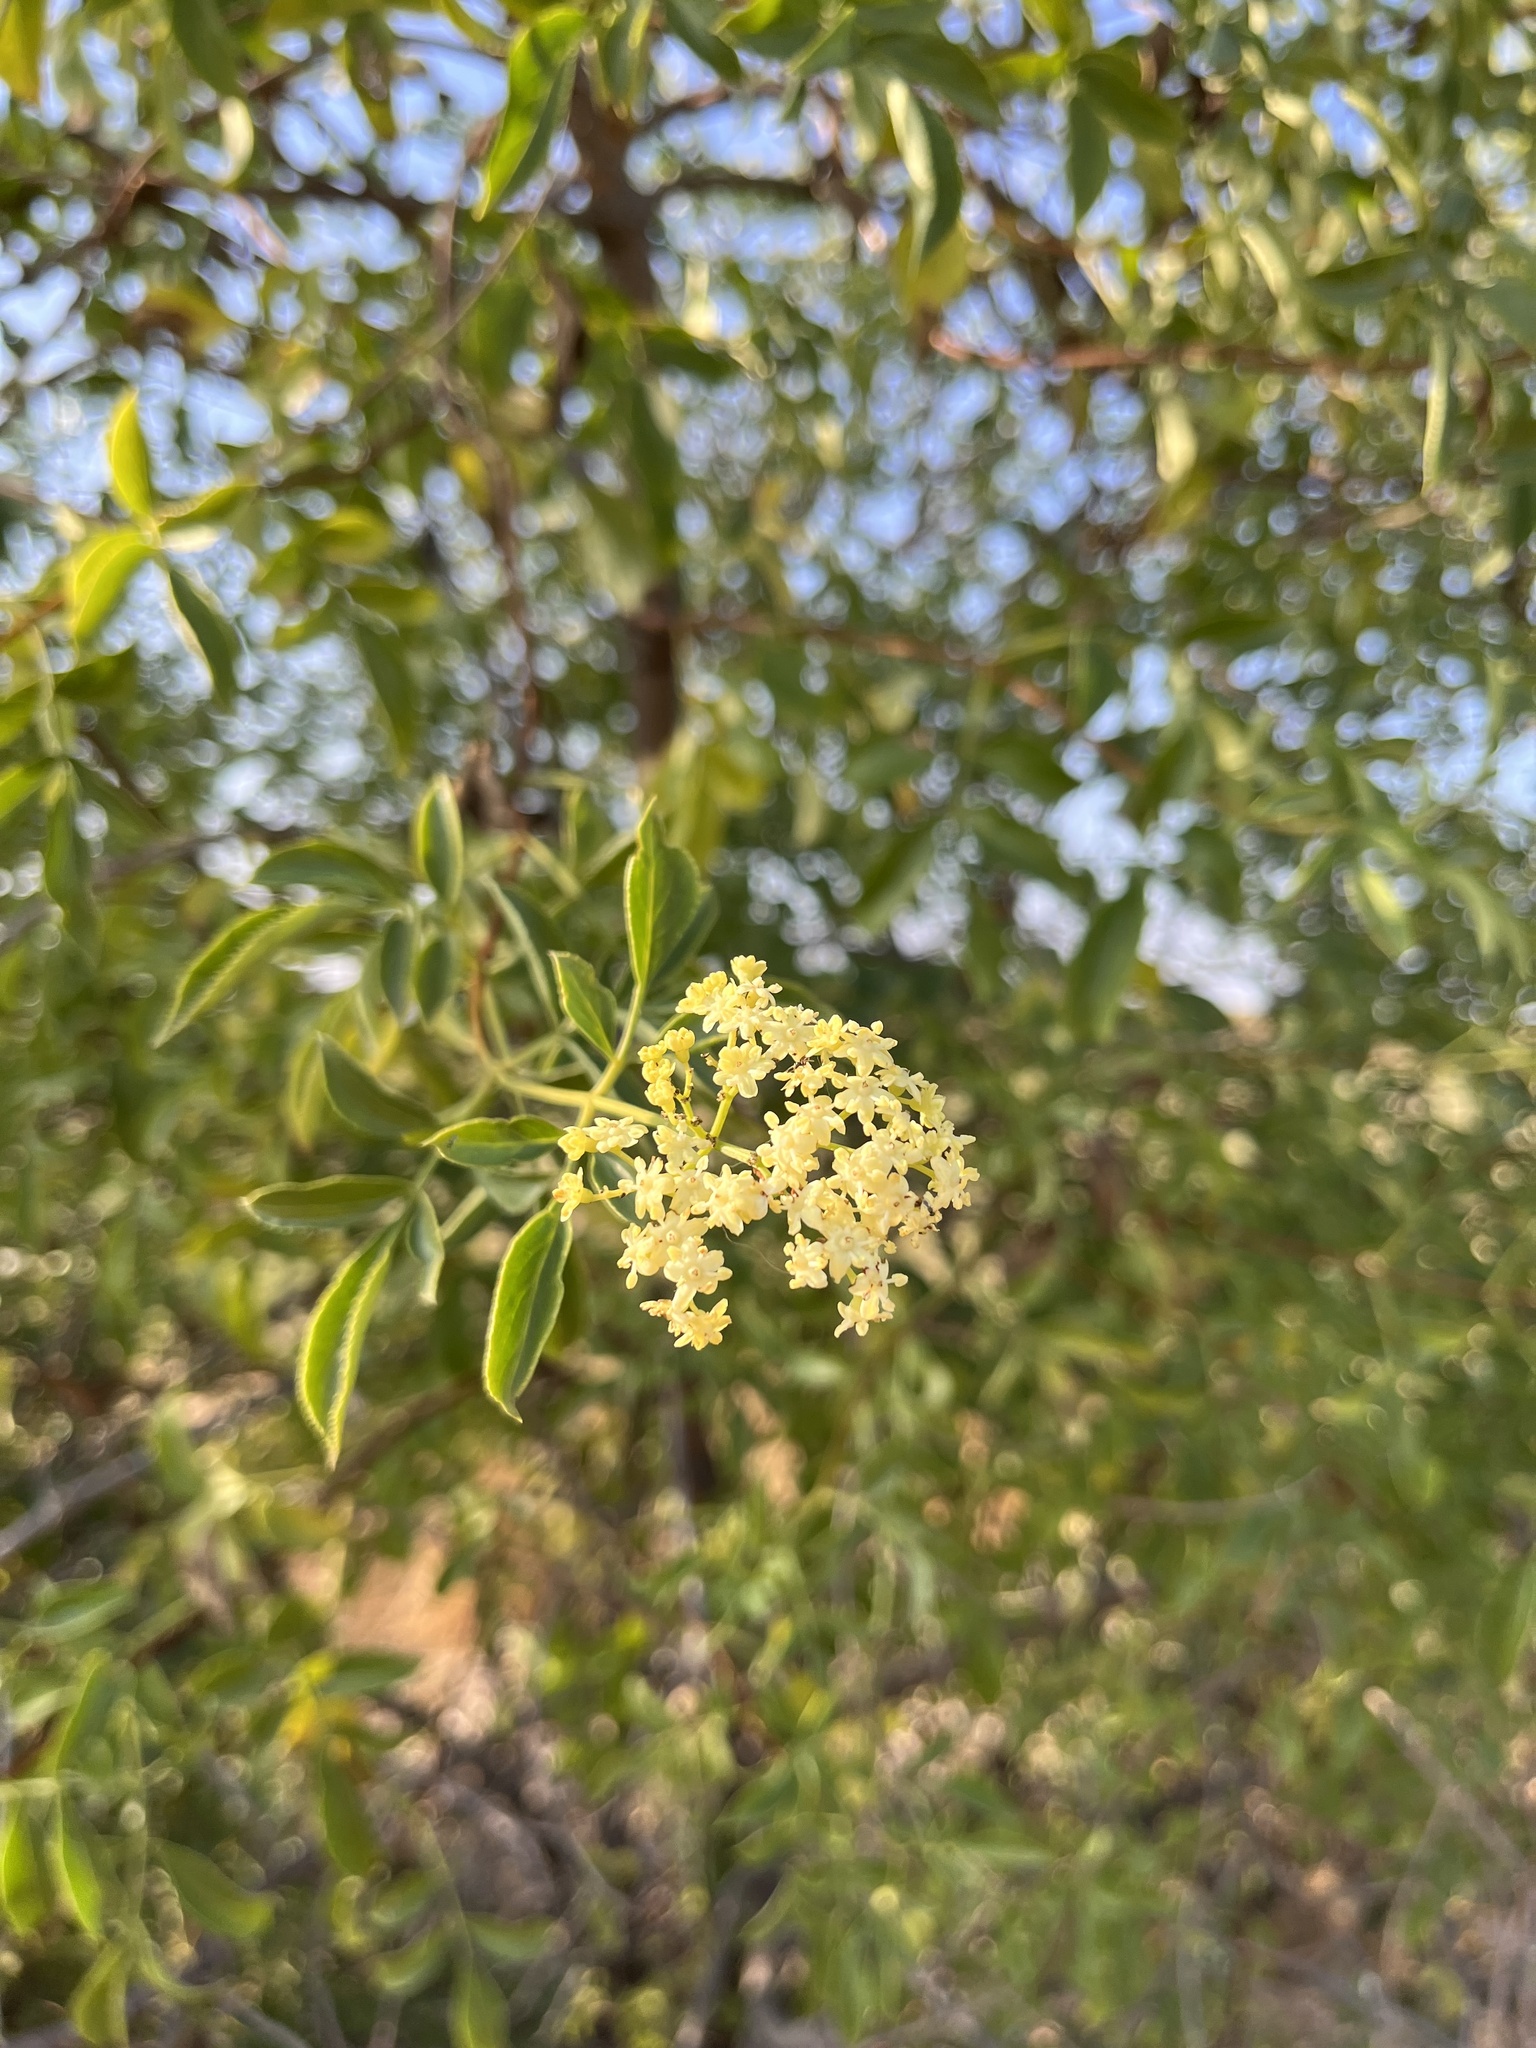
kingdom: Plantae
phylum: Tracheophyta
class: Magnoliopsida
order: Dipsacales
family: Viburnaceae
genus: Sambucus
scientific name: Sambucus cerulea
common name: Blue elder
